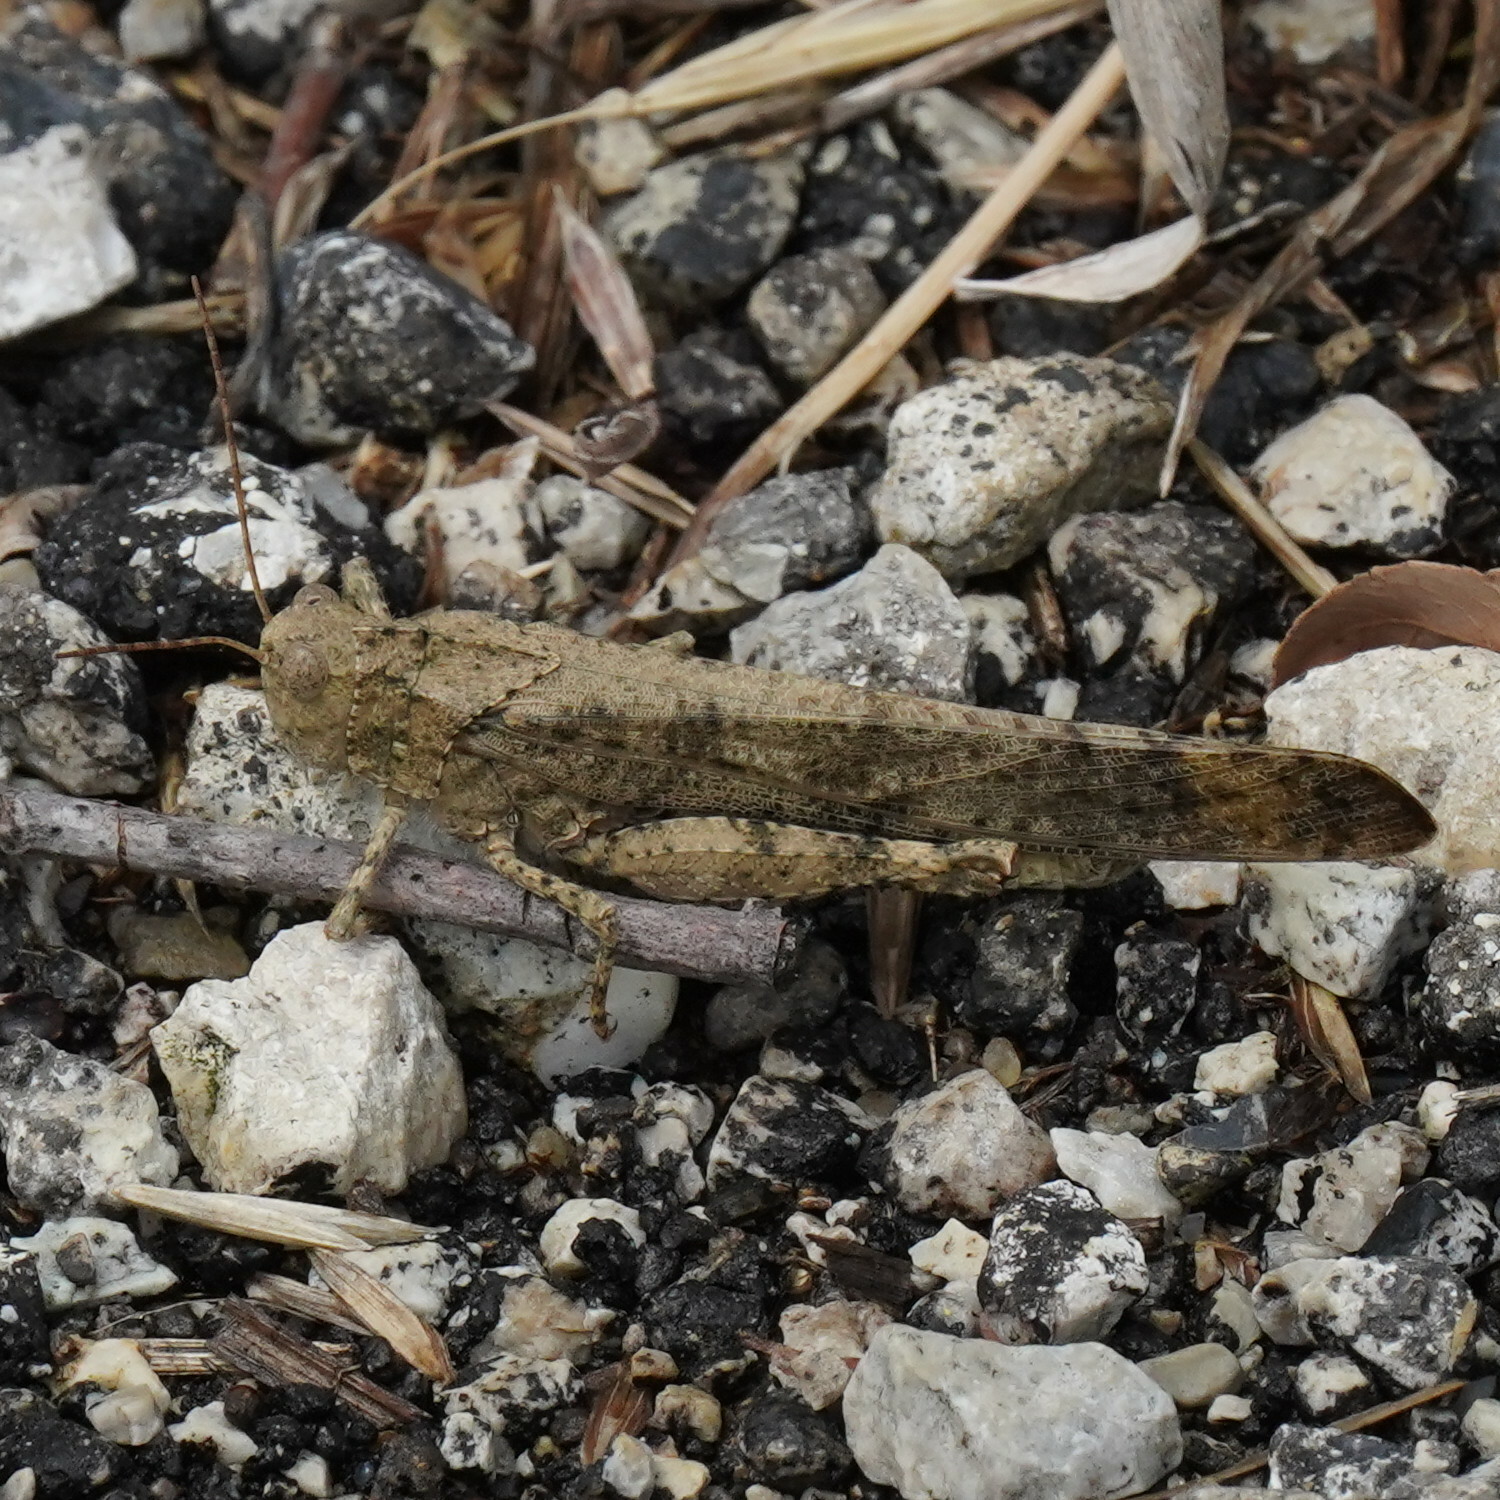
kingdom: Animalia
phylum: Arthropoda
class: Insecta
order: Orthoptera
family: Acrididae
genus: Dissosteira
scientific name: Dissosteira carolina
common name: Carolina grasshopper
